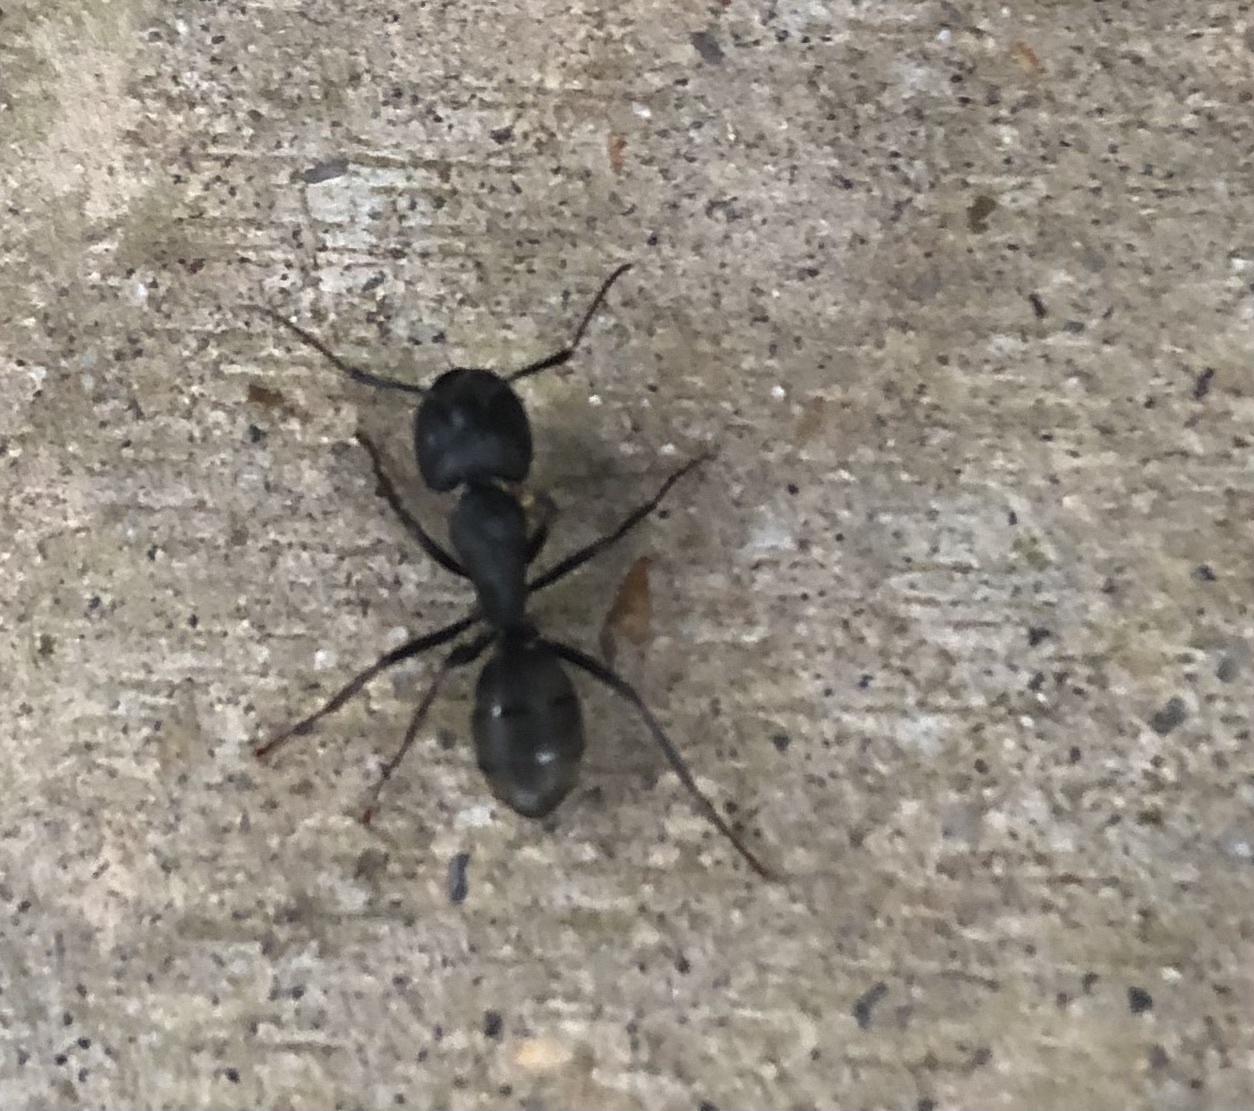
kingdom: Animalia
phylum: Arthropoda
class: Insecta
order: Hymenoptera
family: Formicidae
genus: Camponotus
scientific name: Camponotus pennsylvanicus
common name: Black carpenter ant
